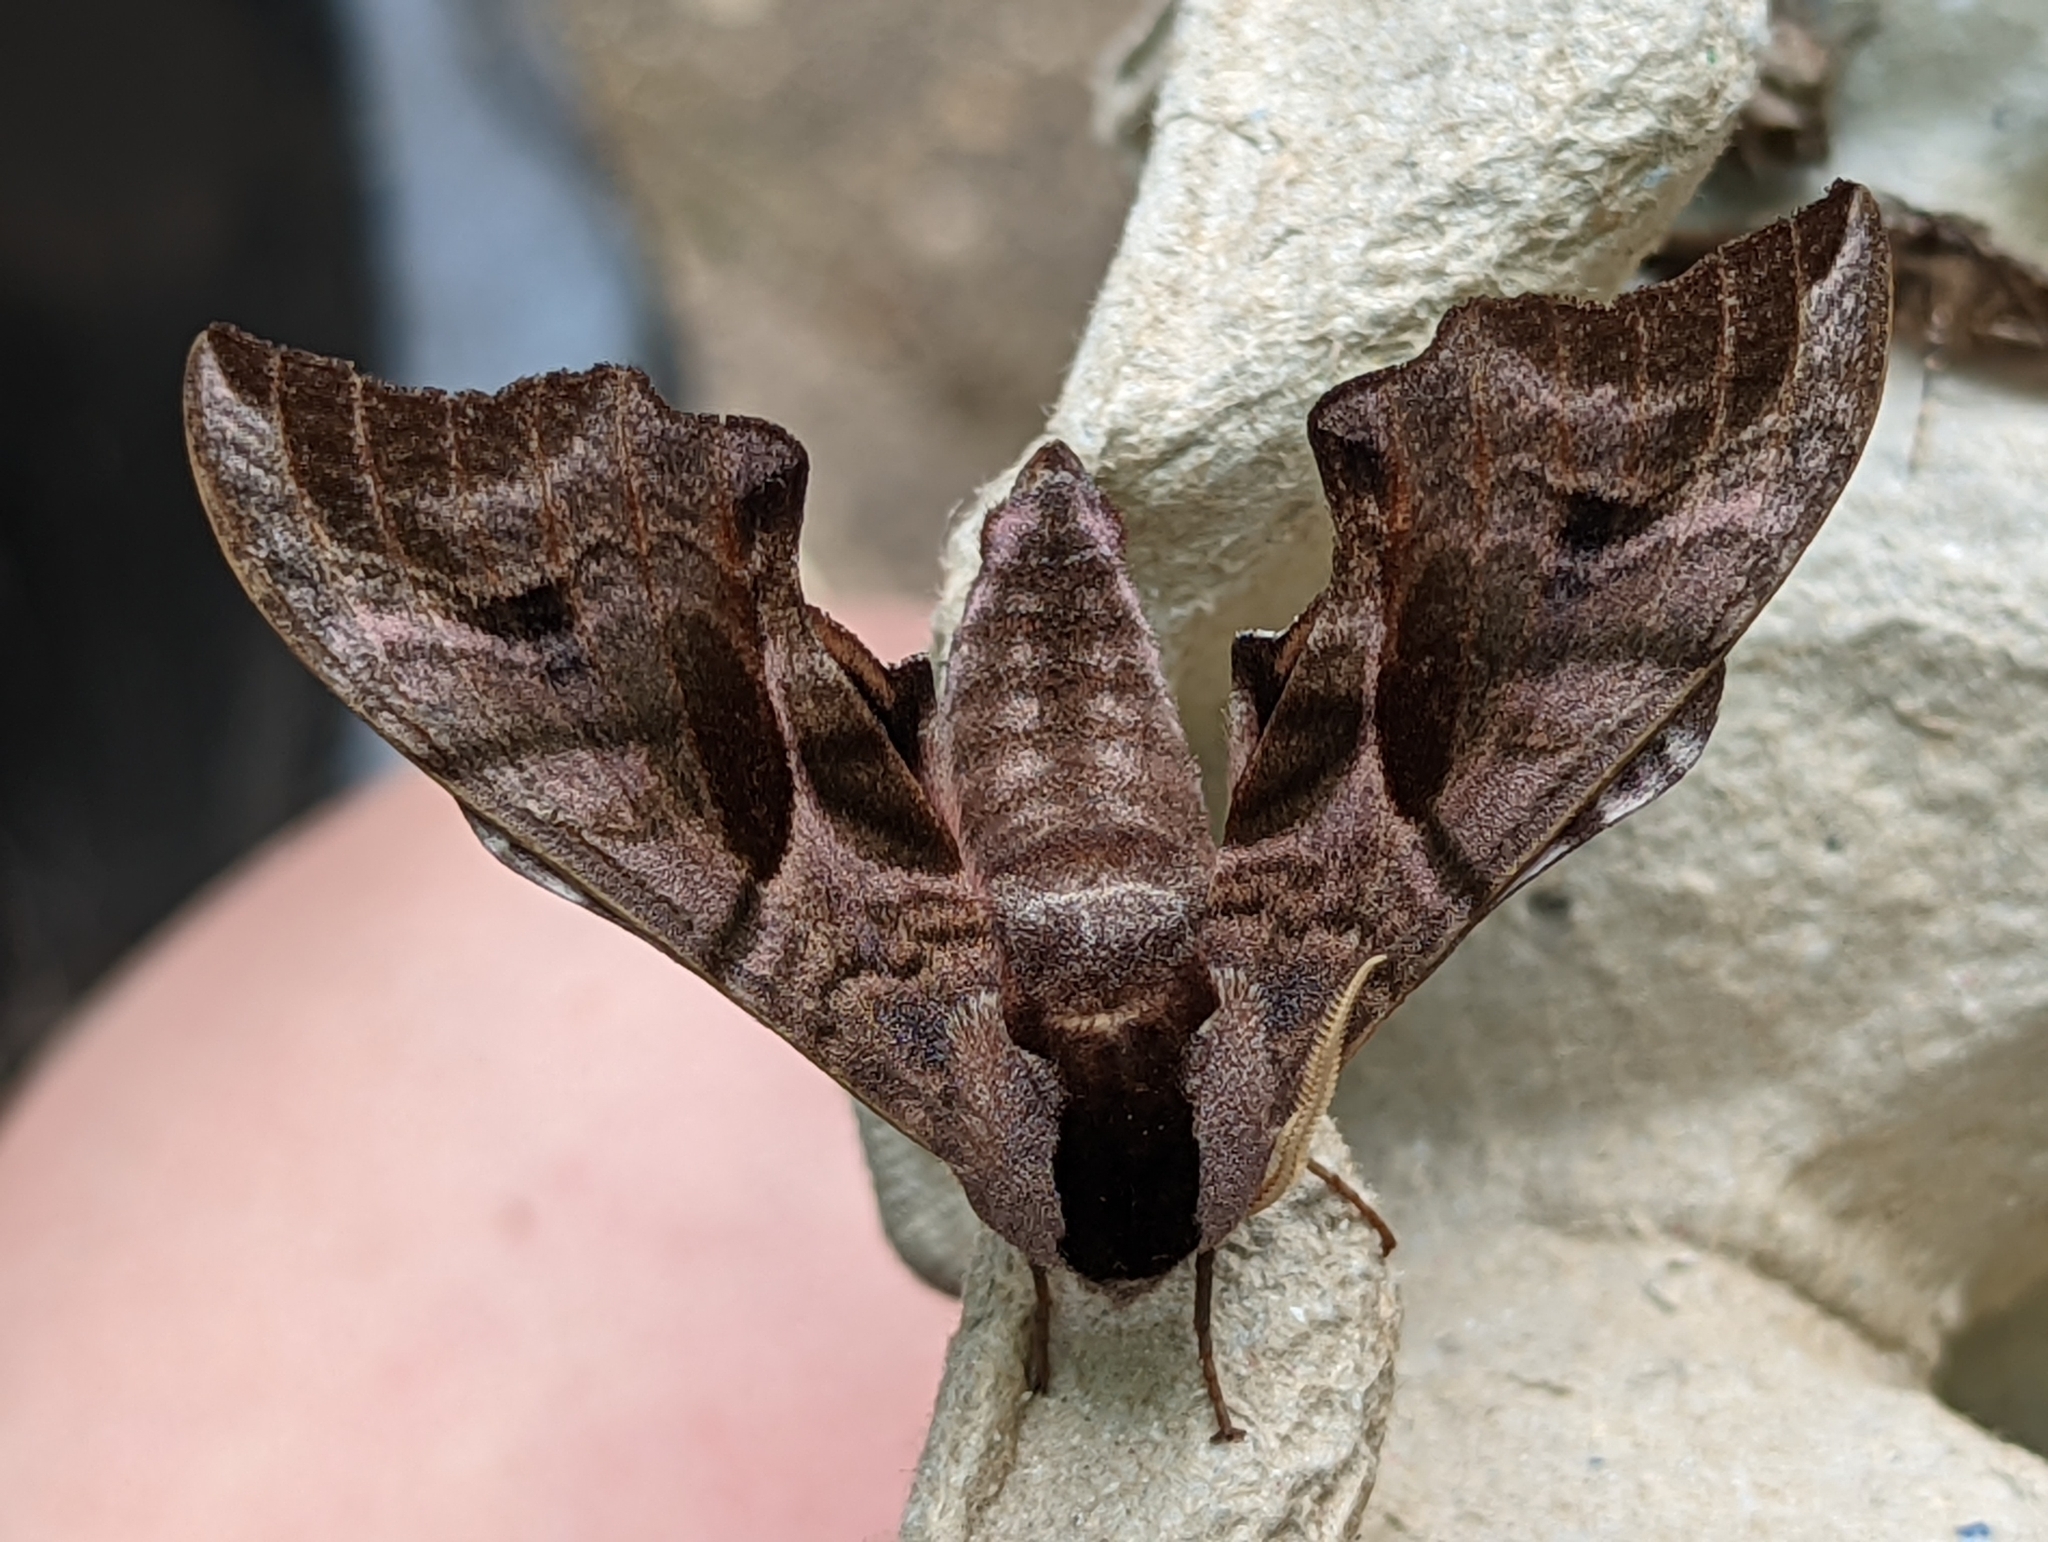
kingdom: Animalia
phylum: Arthropoda
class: Insecta
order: Lepidoptera
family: Sphingidae
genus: Smerinthus
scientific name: Smerinthus ocellata
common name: Eyed hawk-moth
